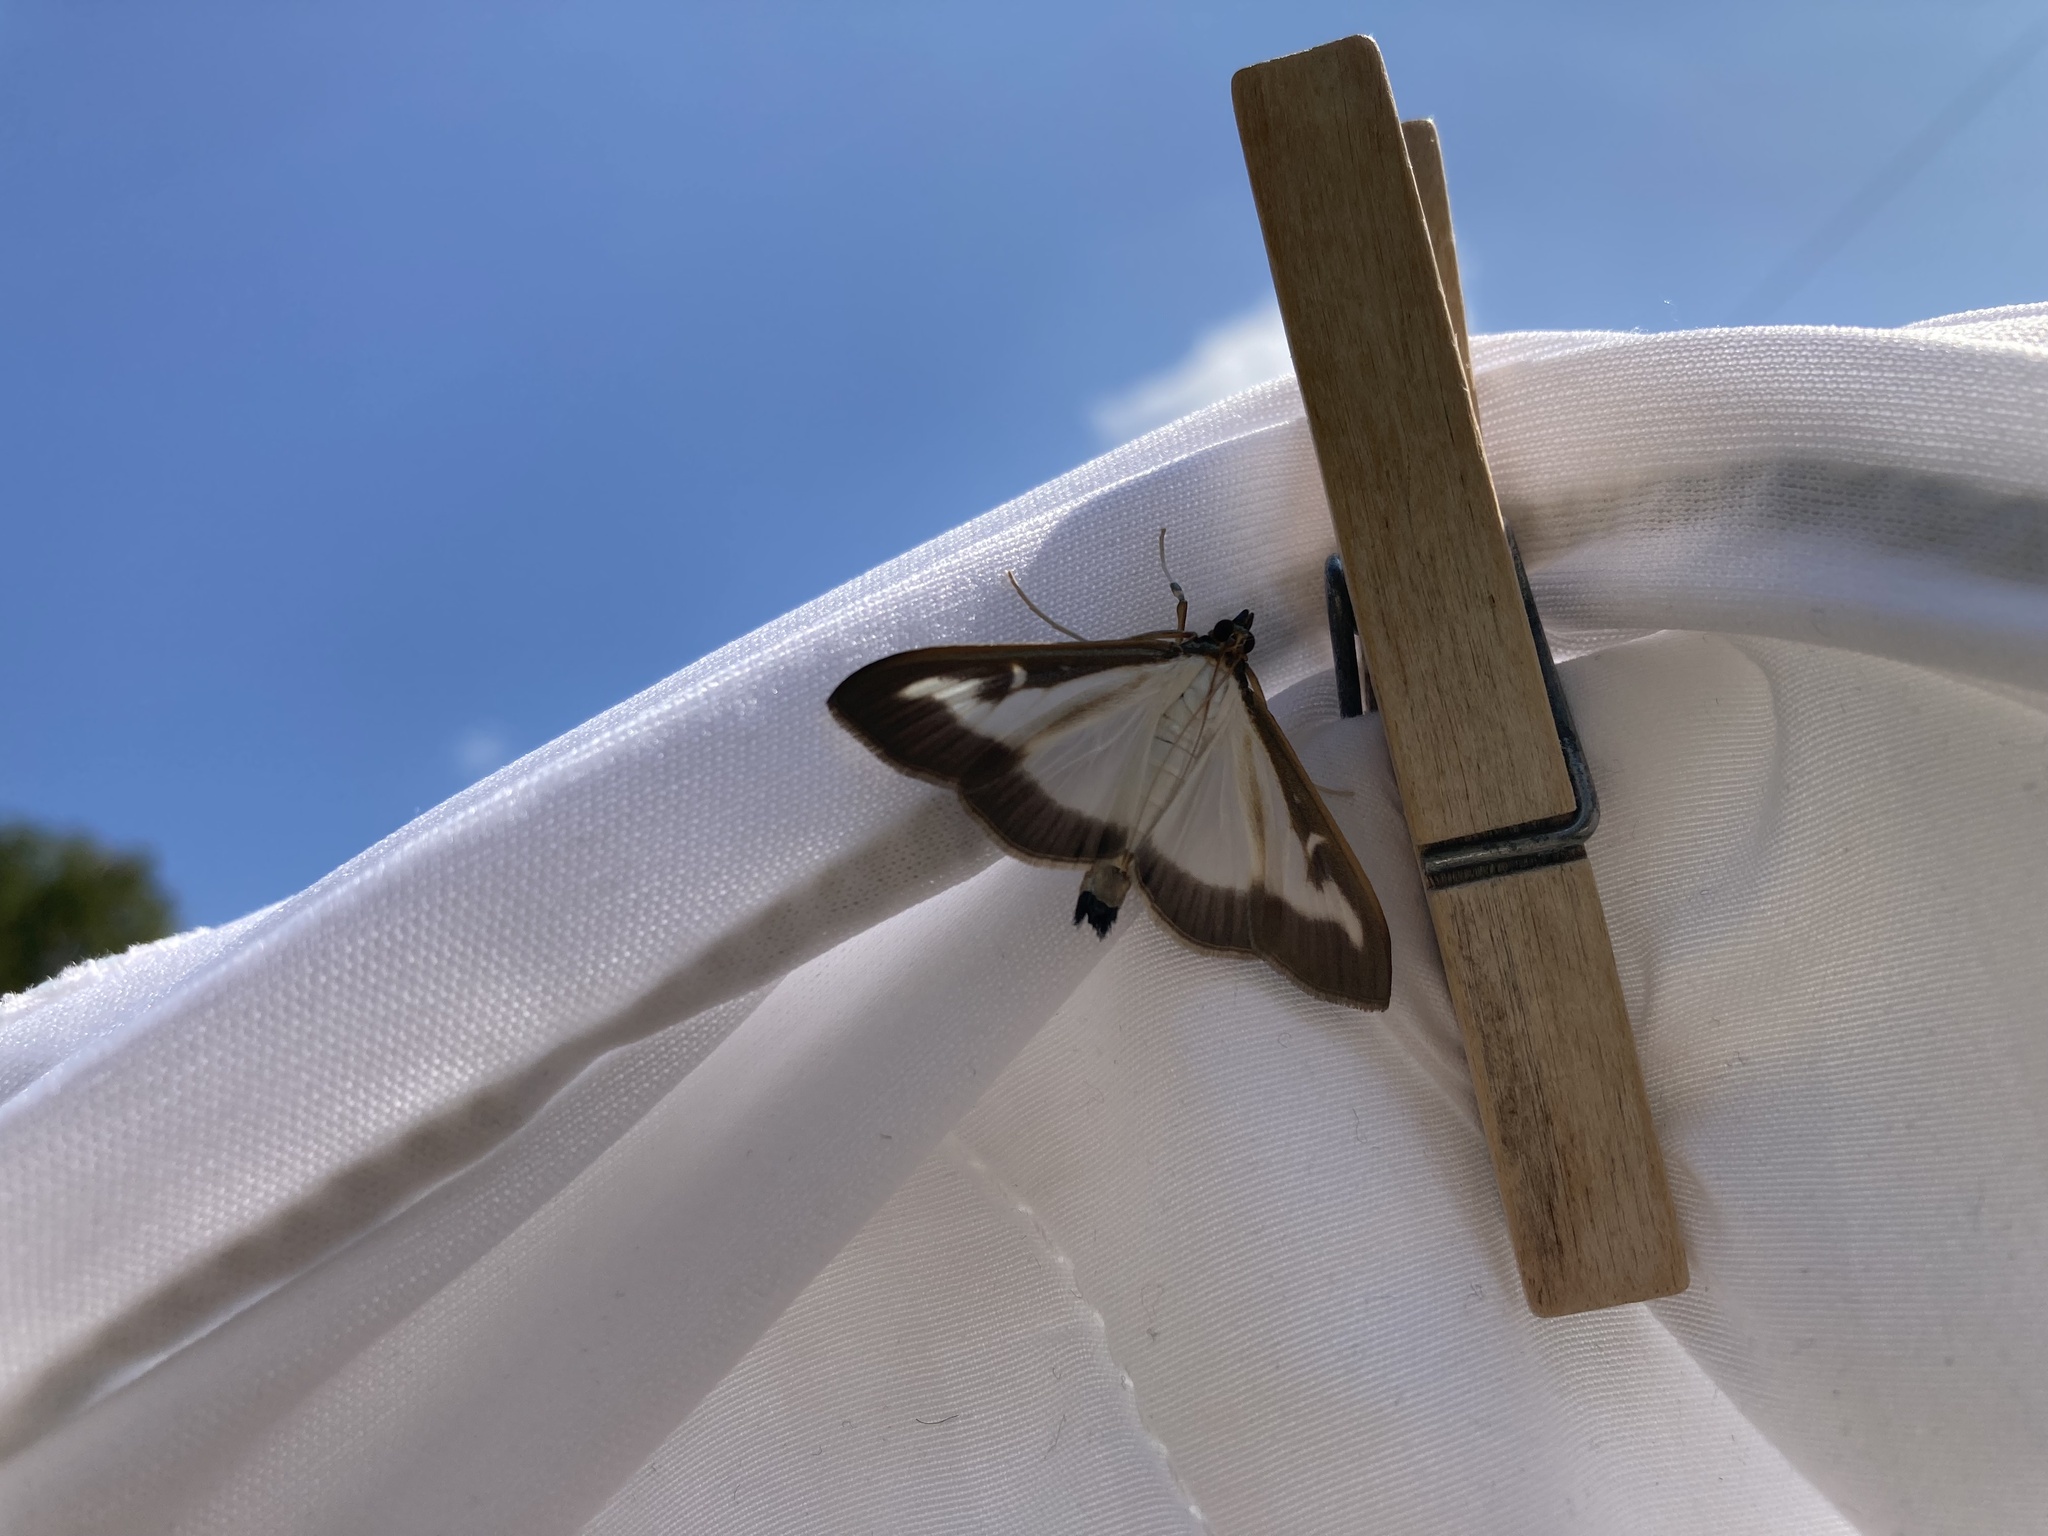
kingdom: Animalia
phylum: Arthropoda
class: Insecta
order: Lepidoptera
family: Crambidae
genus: Cydalima
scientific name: Cydalima perspectalis
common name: Box tree moth
